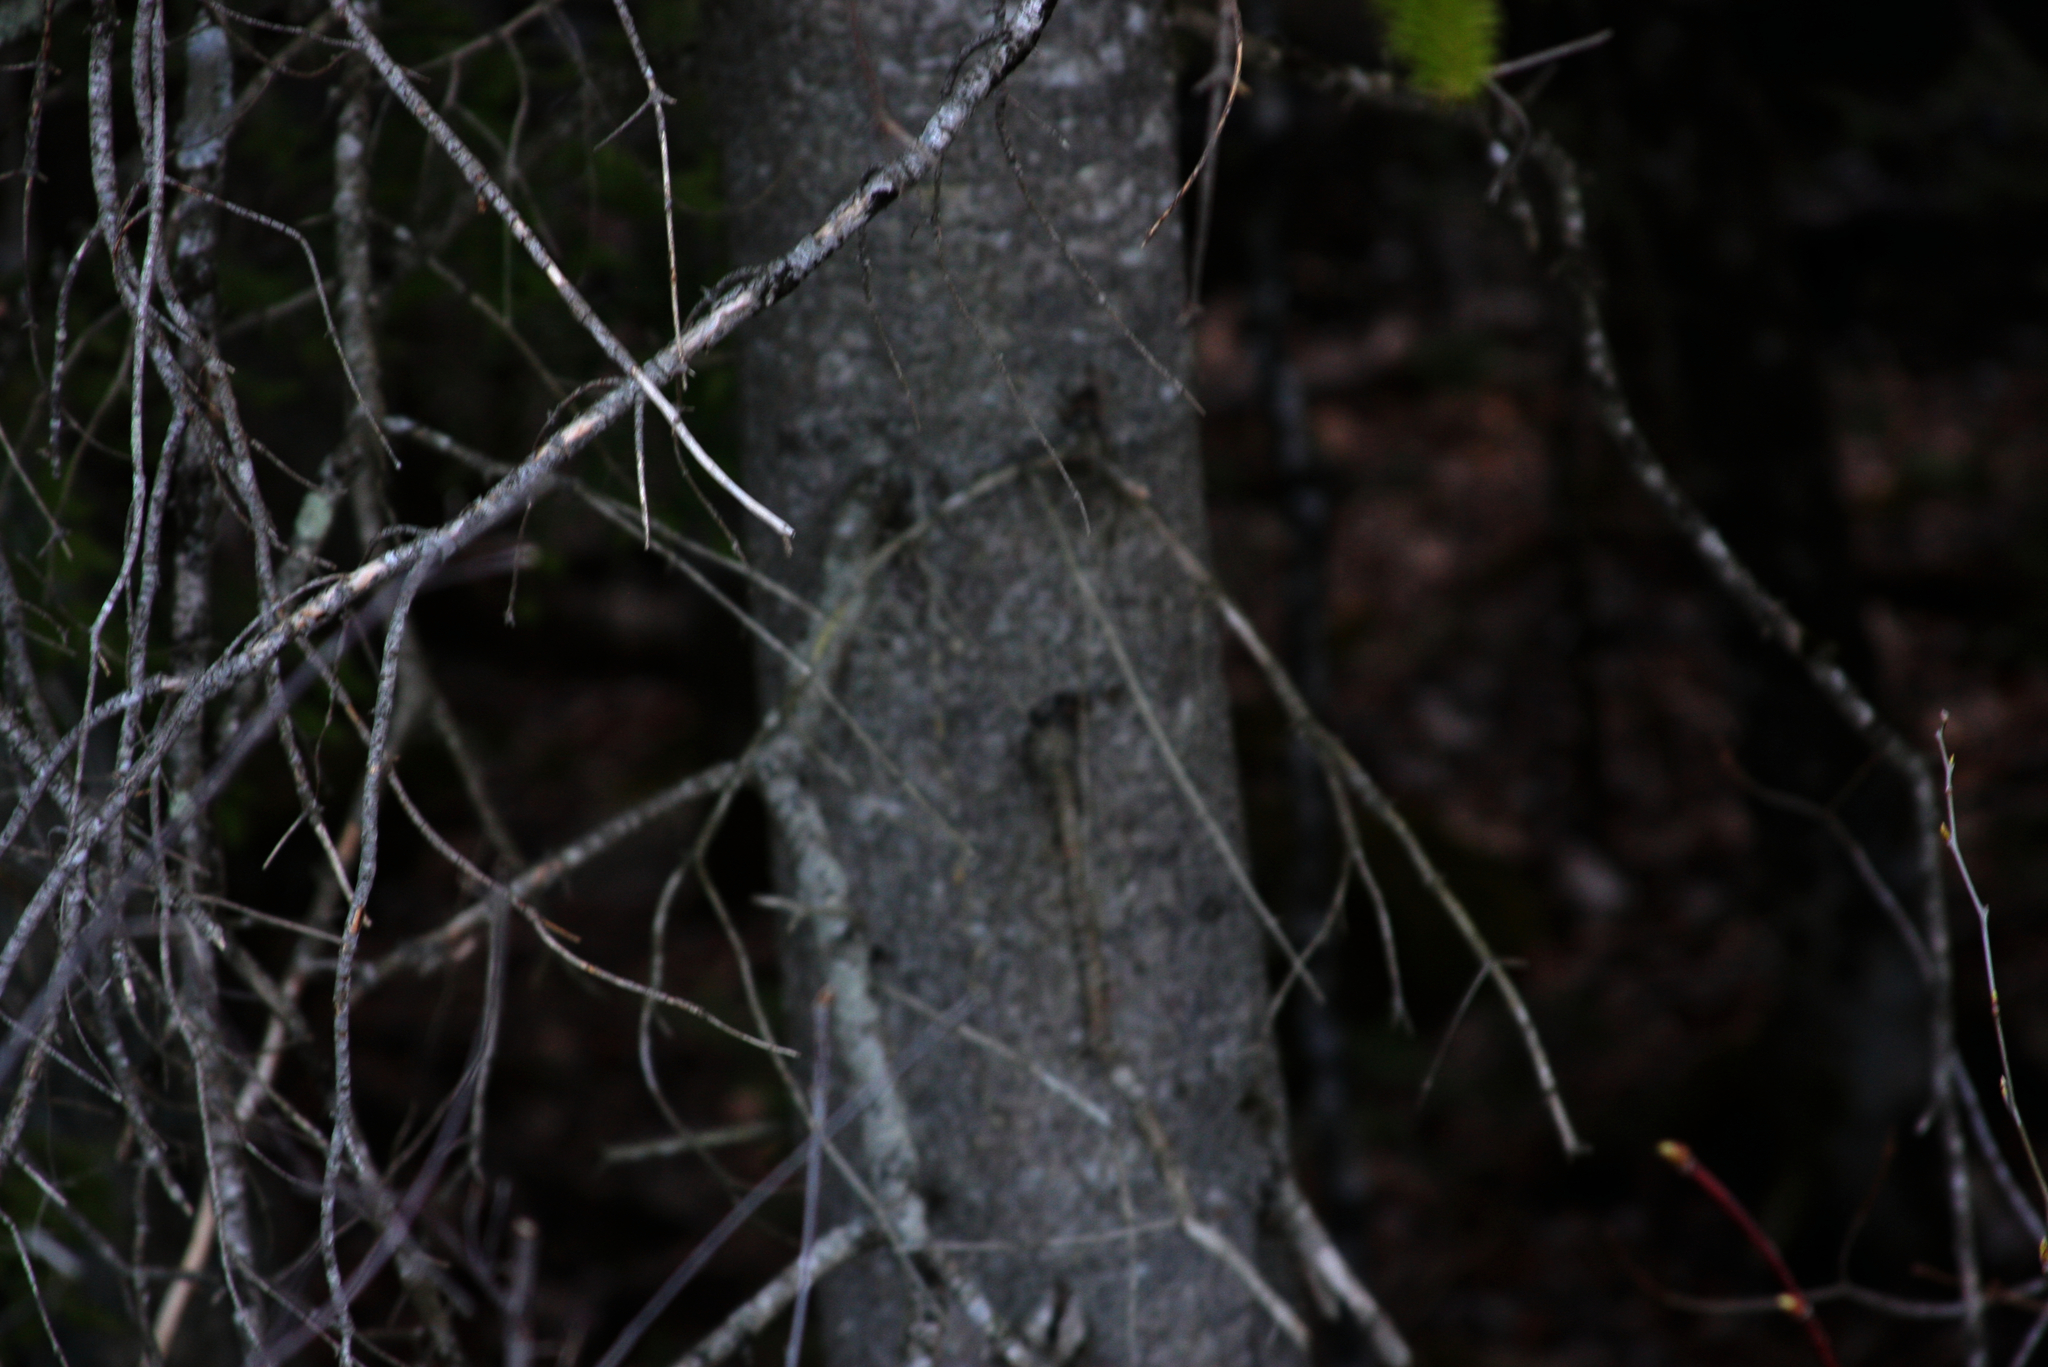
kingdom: Plantae
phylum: Tracheophyta
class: Pinopsida
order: Pinales
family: Pinaceae
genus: Abies
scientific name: Abies balsamea
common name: Balsam fir
